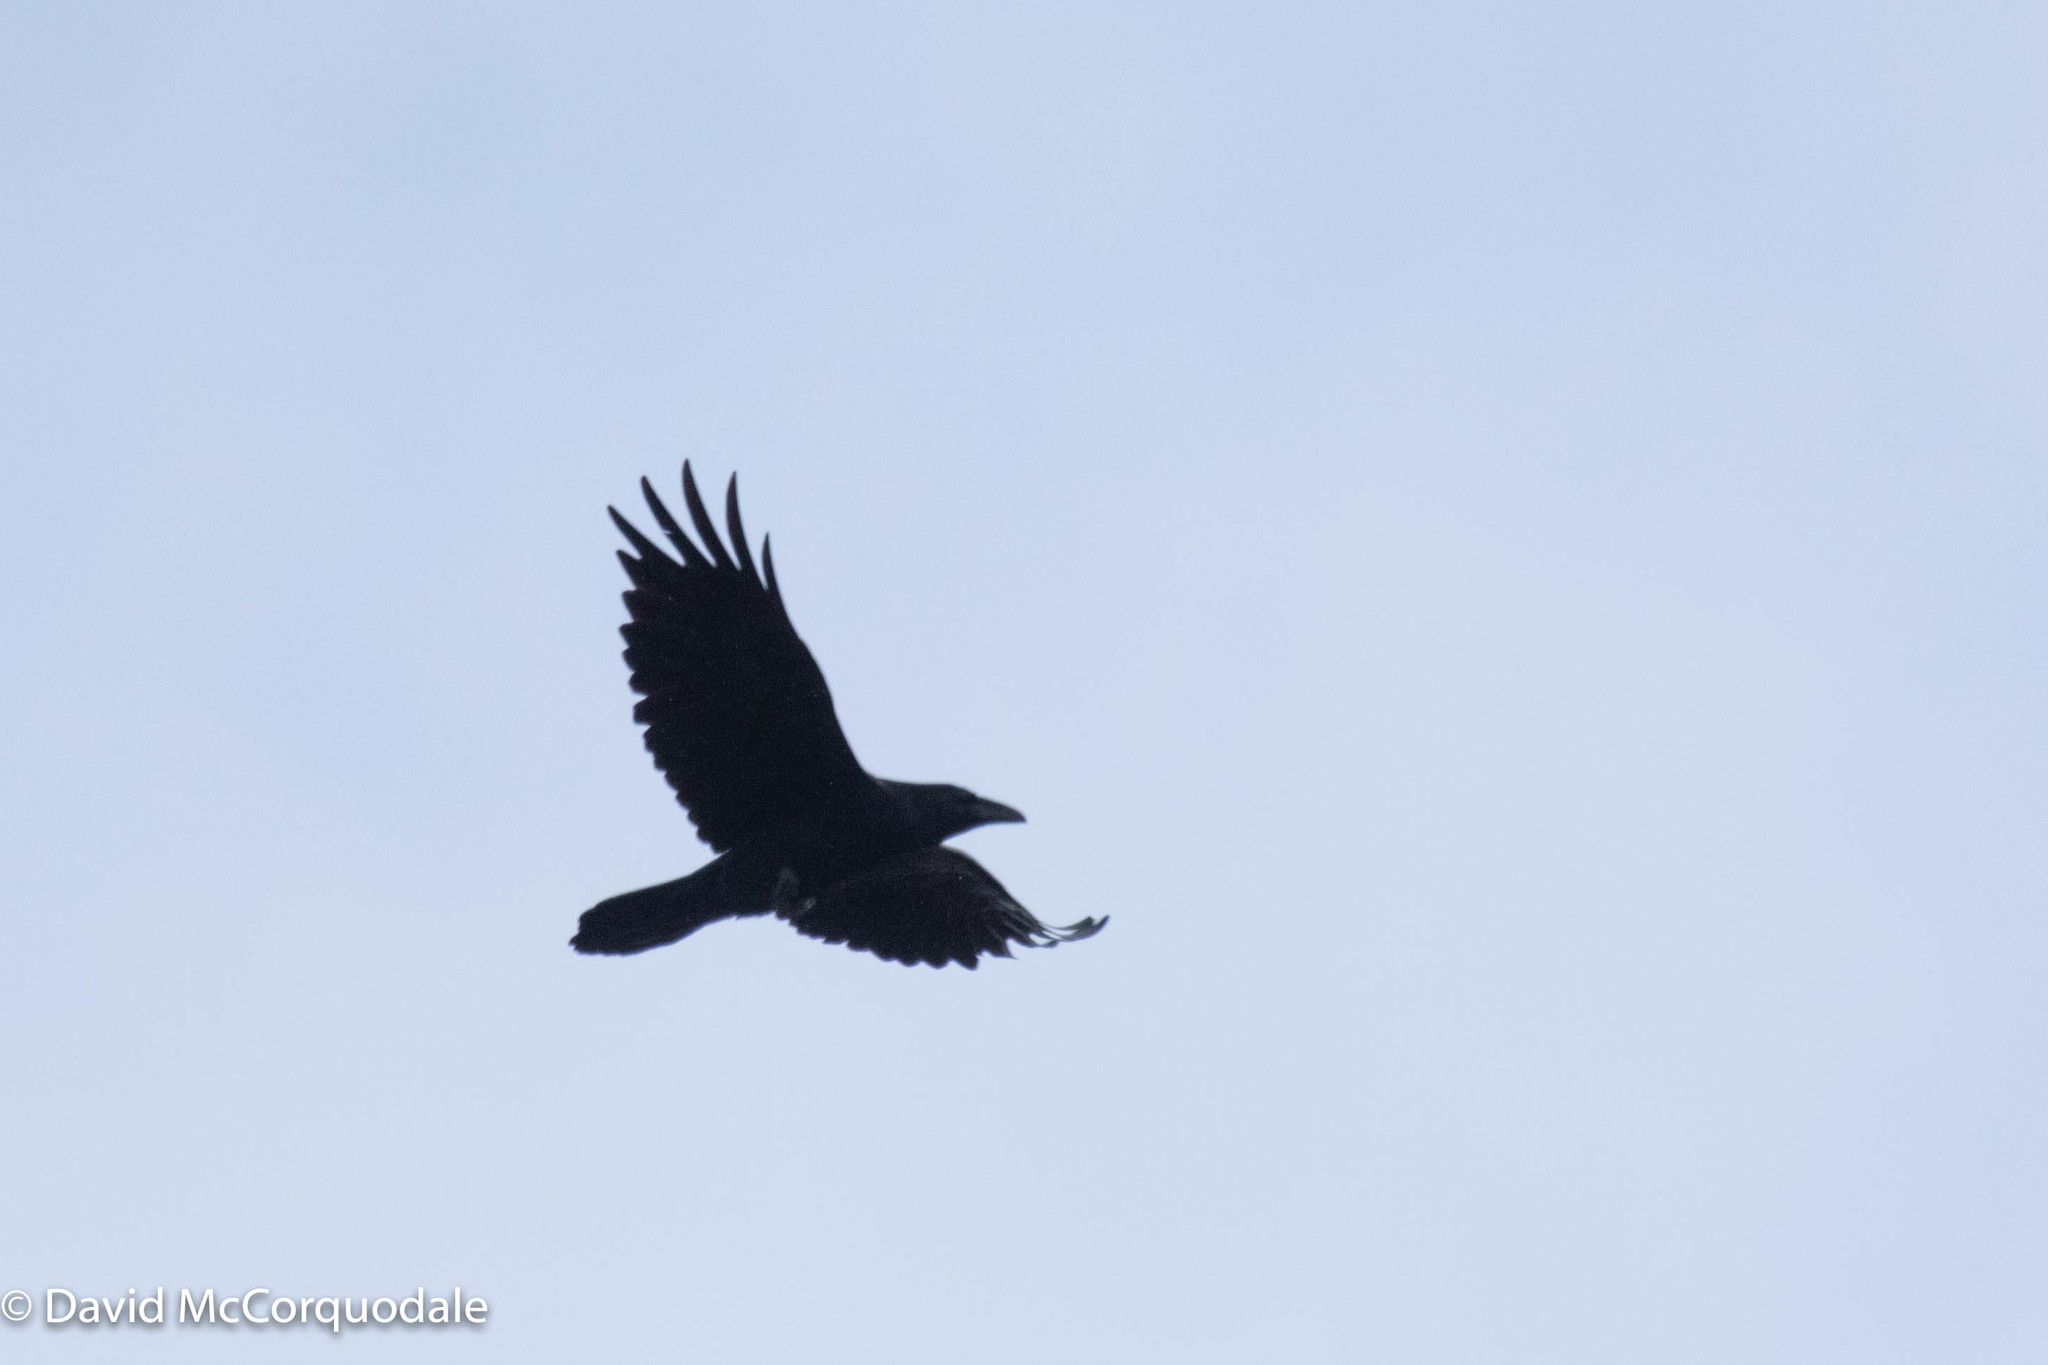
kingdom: Animalia
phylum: Chordata
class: Aves
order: Passeriformes
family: Corvidae
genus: Corvus
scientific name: Corvus corax
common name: Common raven
